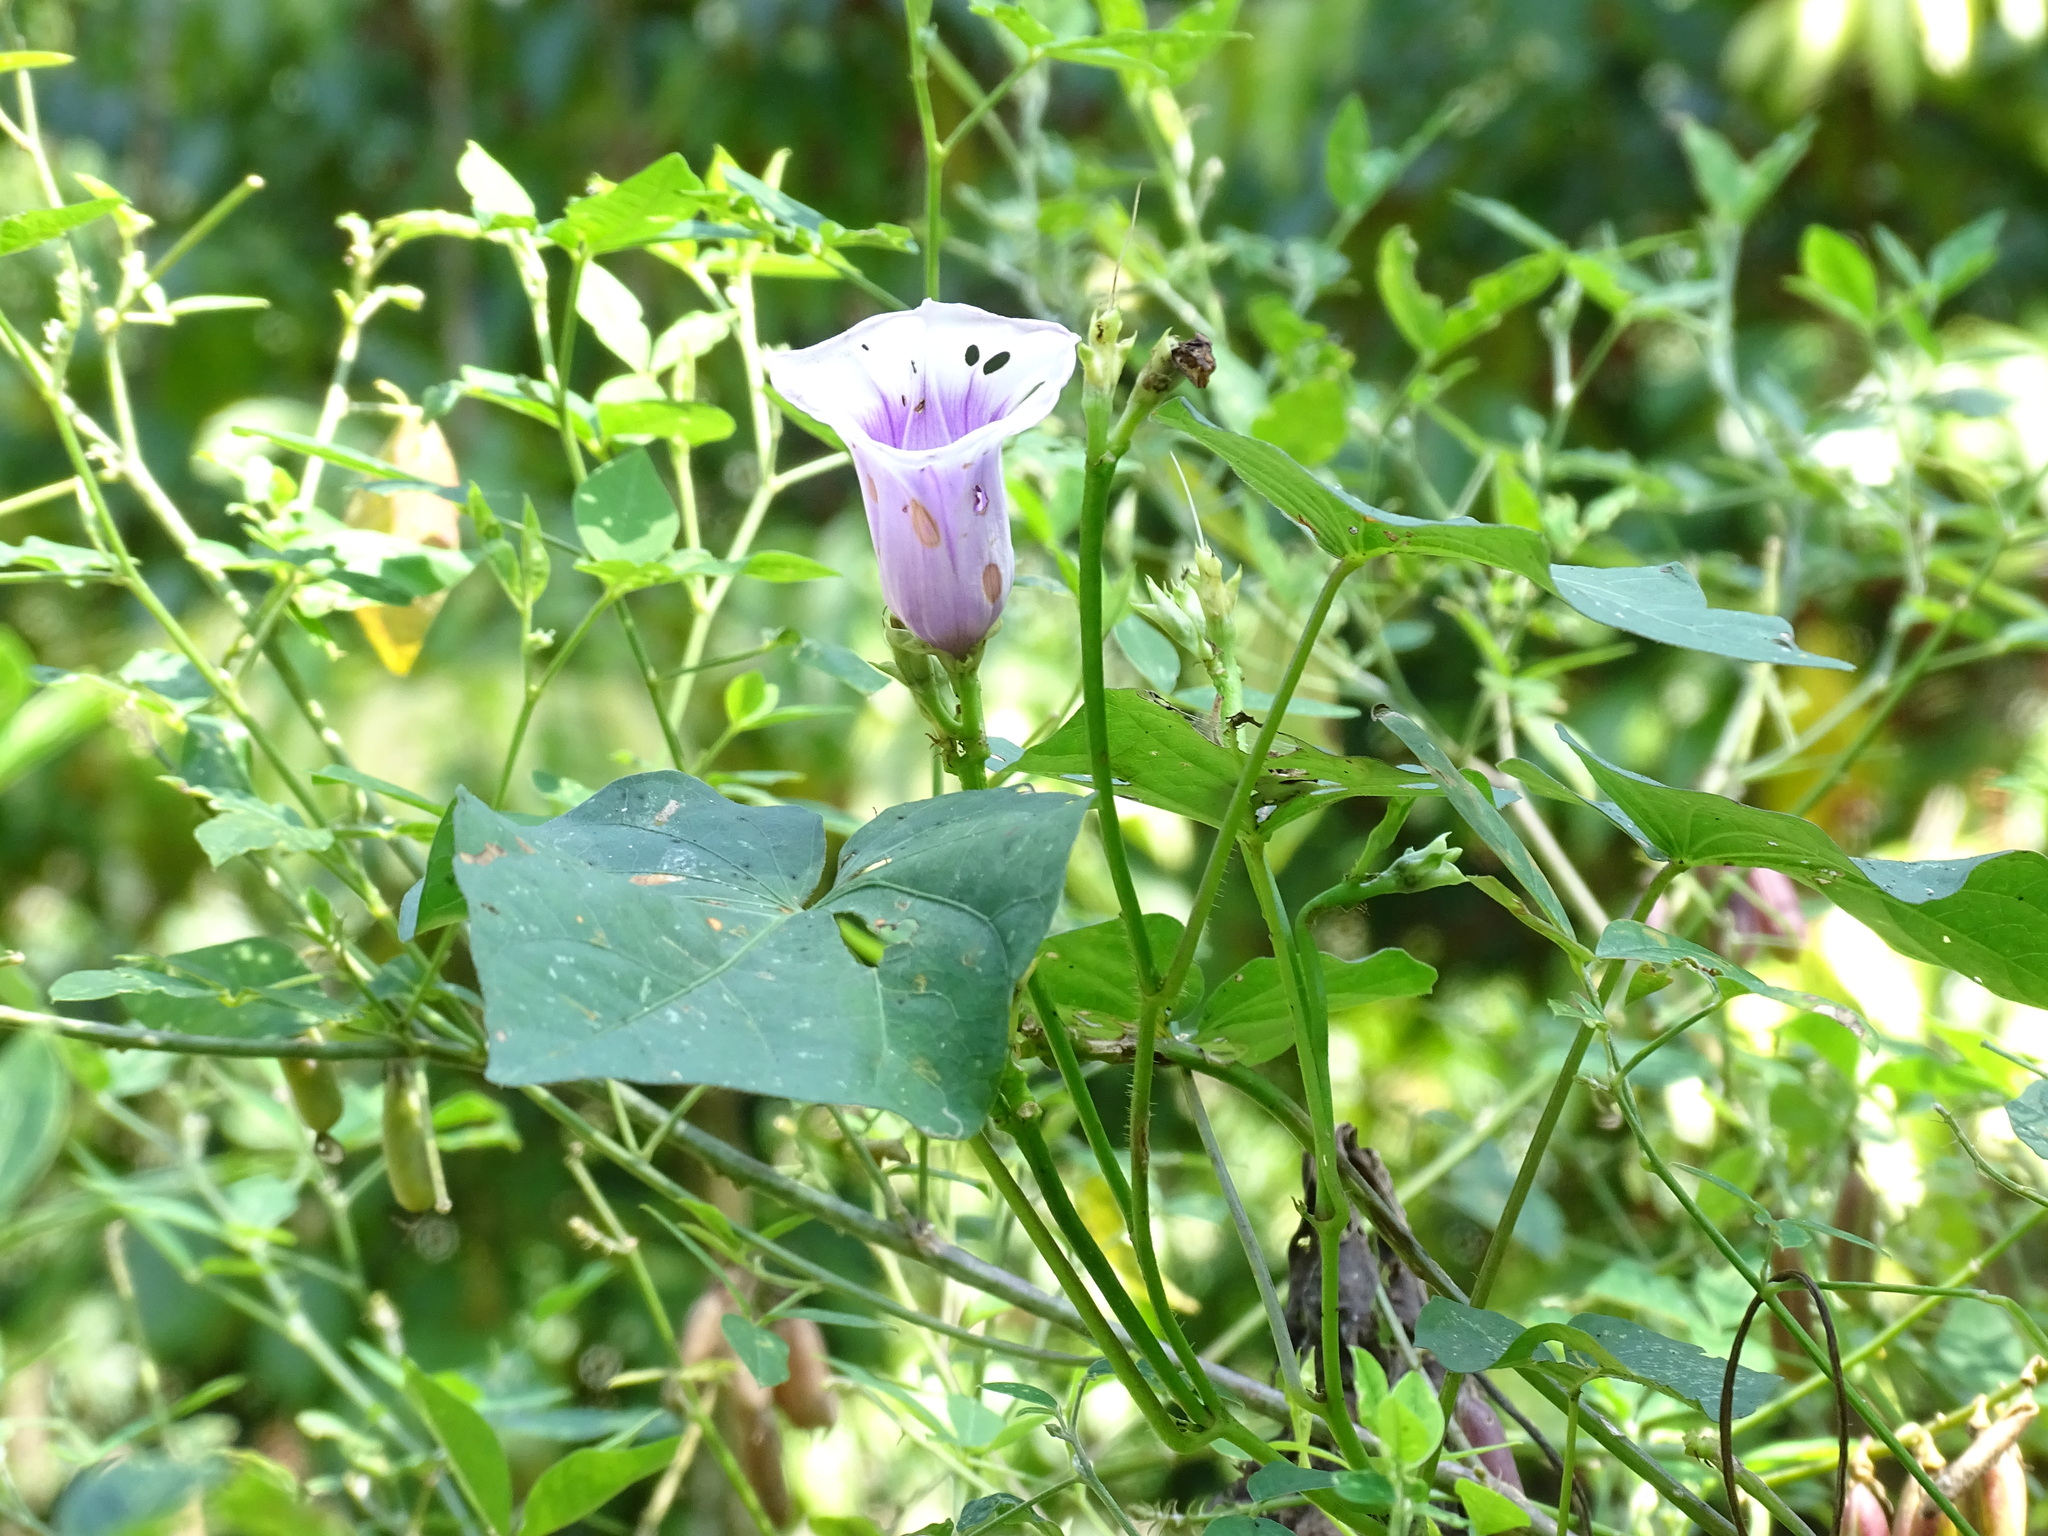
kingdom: Plantae
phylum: Tracheophyta
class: Magnoliopsida
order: Solanales
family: Convolvulaceae
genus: Ipomoea
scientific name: Ipomoea batatas
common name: Sweet-potato
